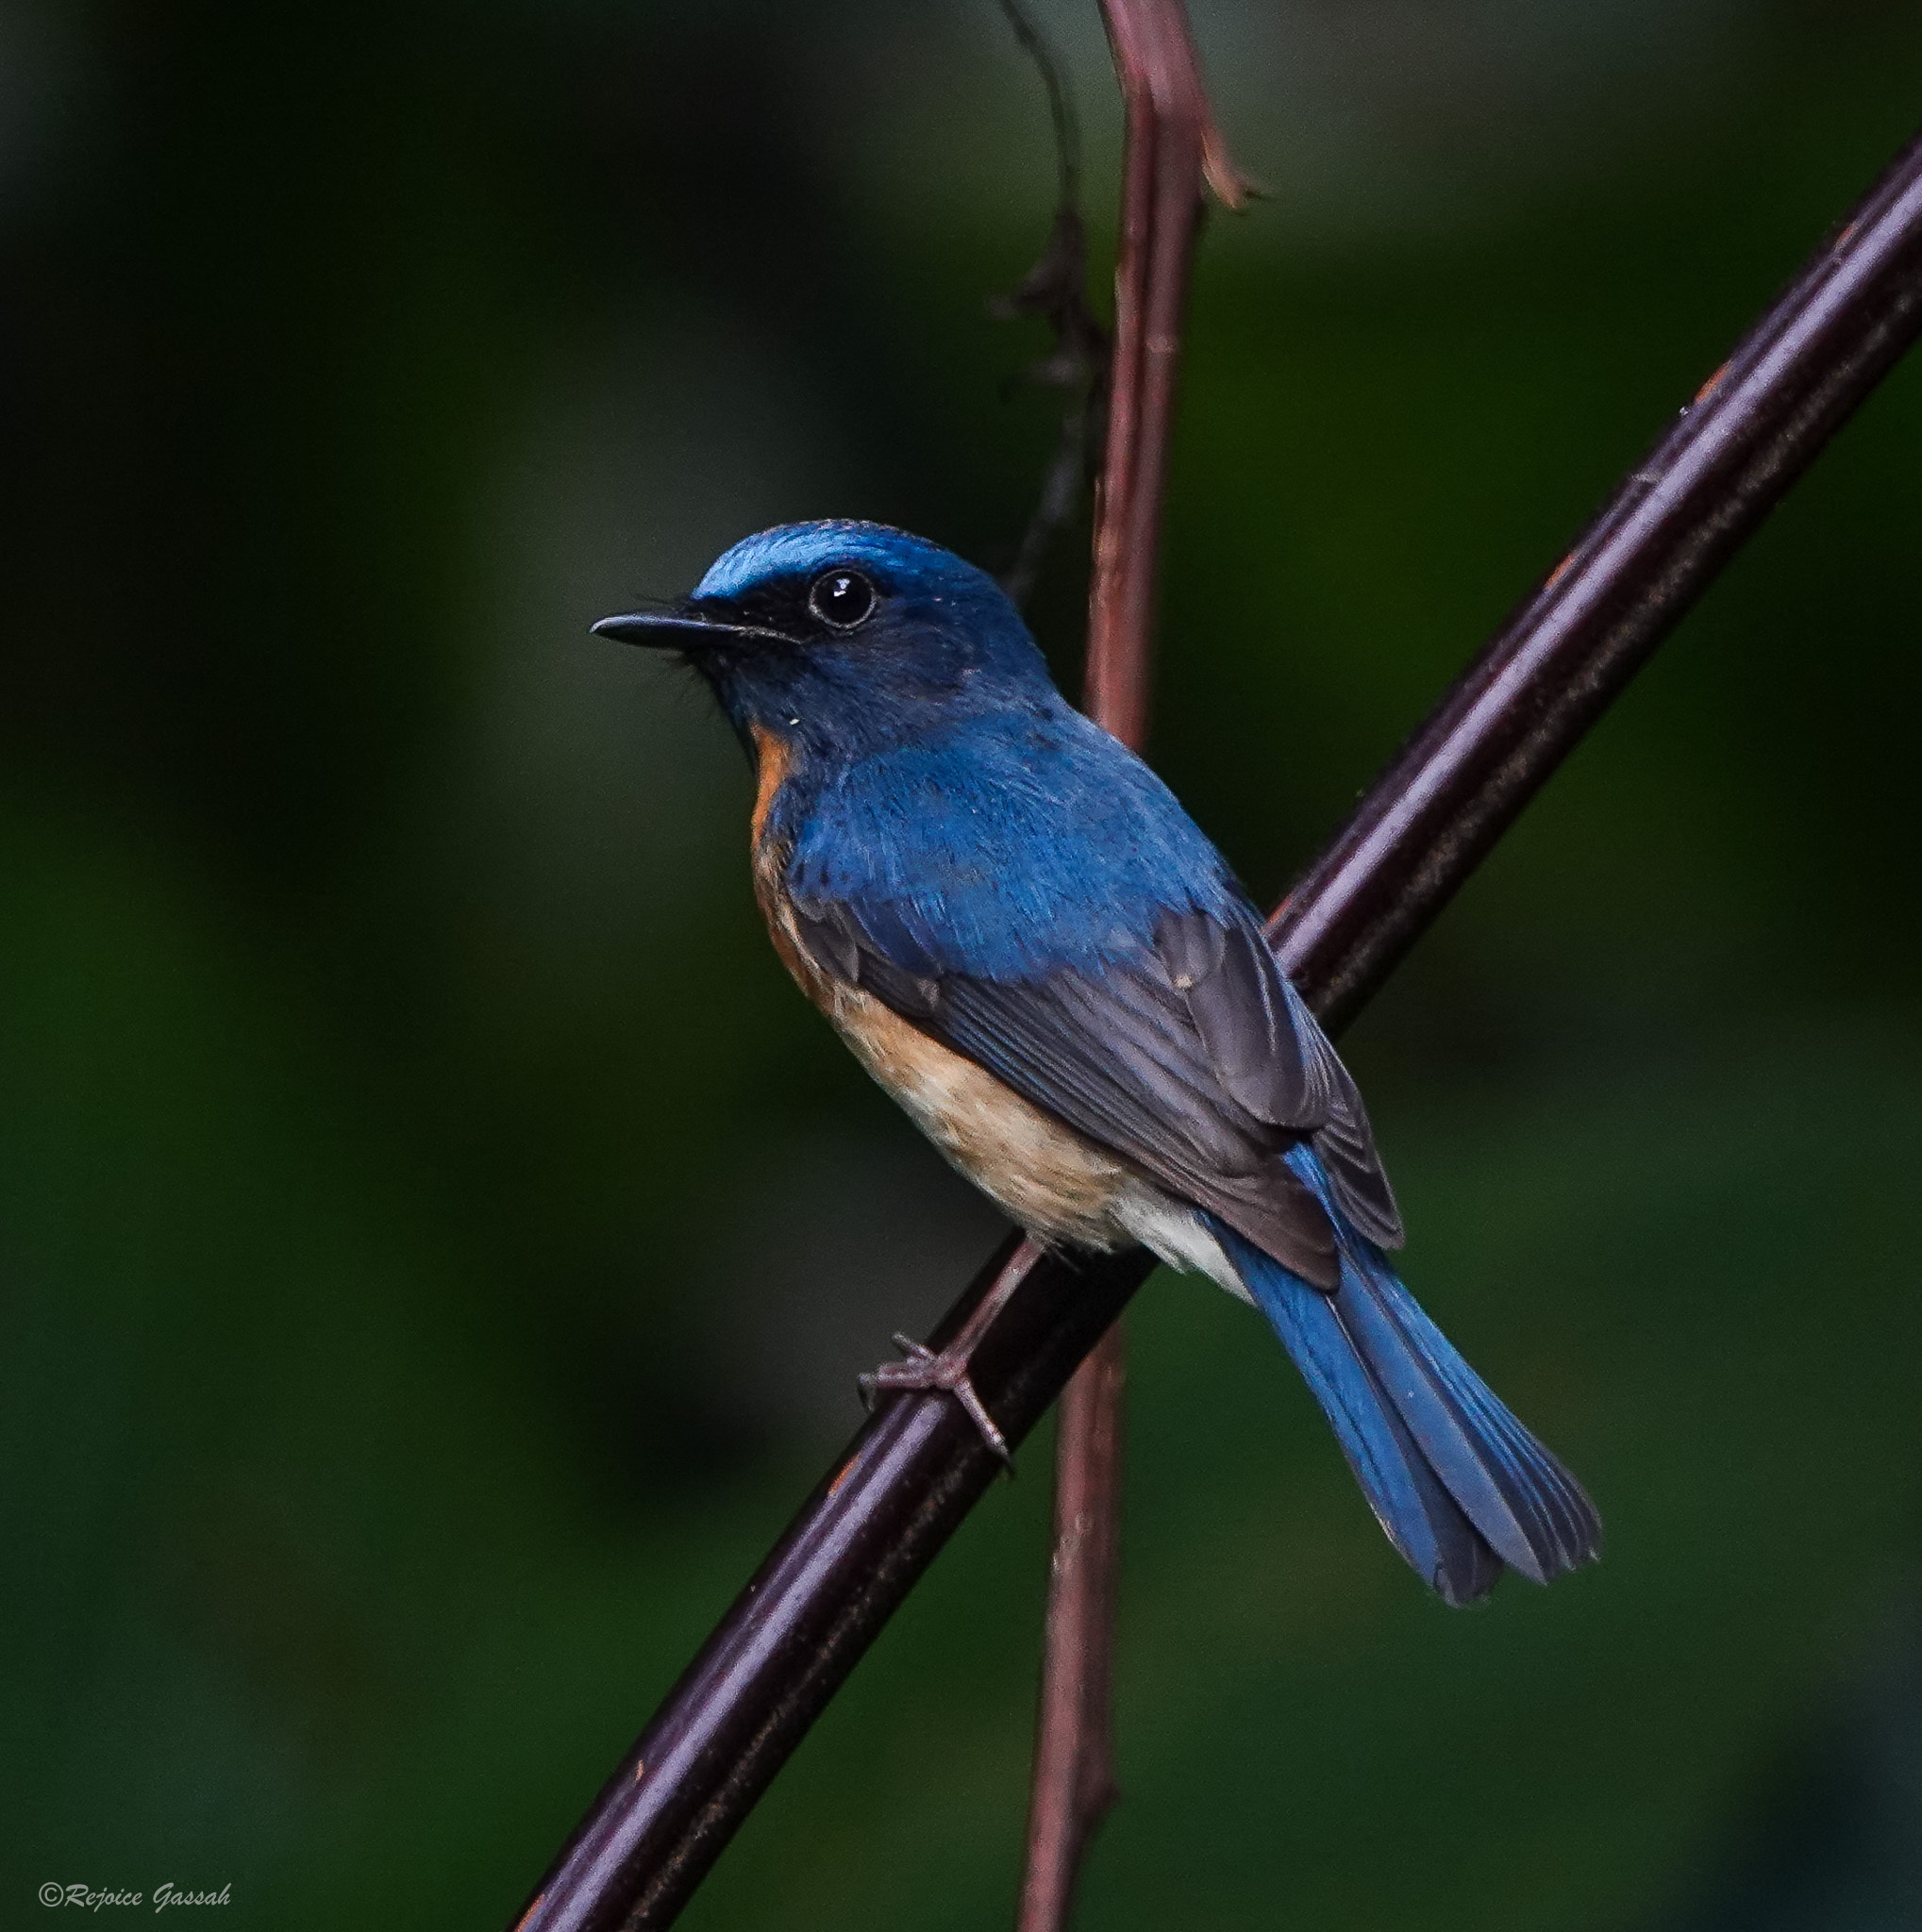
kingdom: Animalia
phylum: Chordata
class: Aves
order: Passeriformes
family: Muscicapidae
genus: Cyornis
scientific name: Cyornis rubeculoides
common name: Blue-throated blue flycatcher
